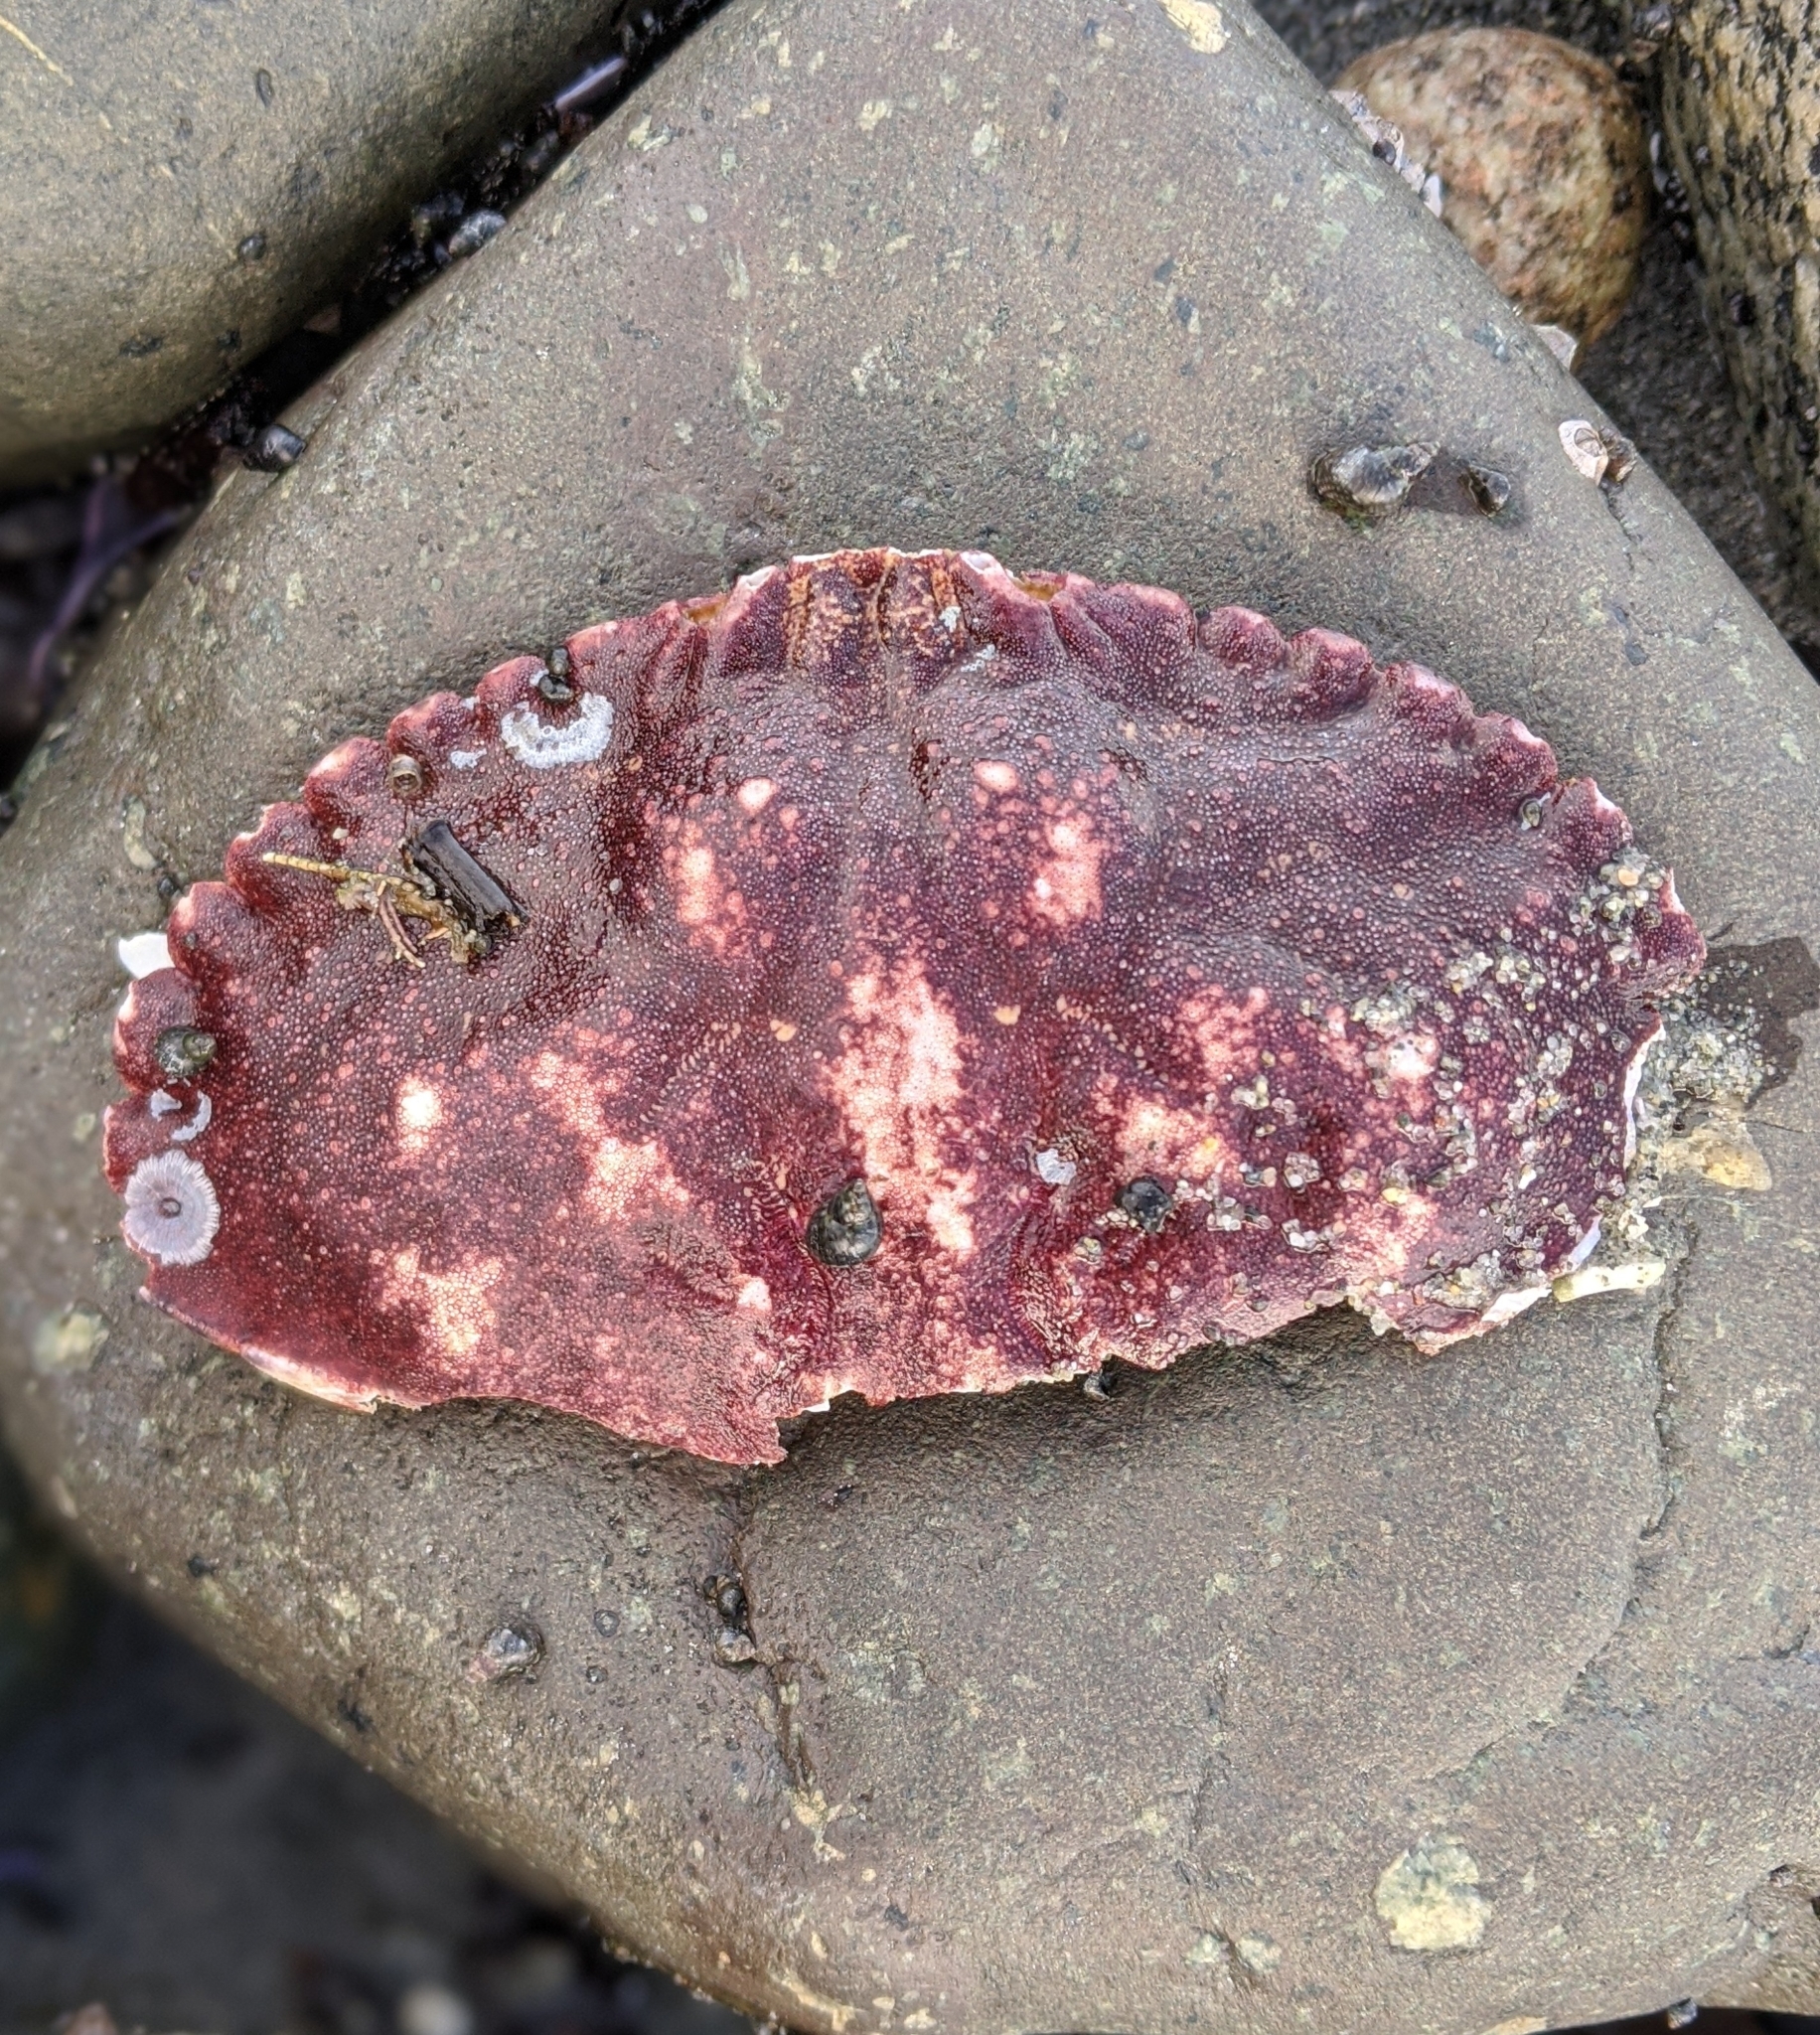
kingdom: Animalia
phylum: Arthropoda
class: Malacostraca
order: Decapoda
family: Cancridae
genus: Cancer
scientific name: Cancer productus
